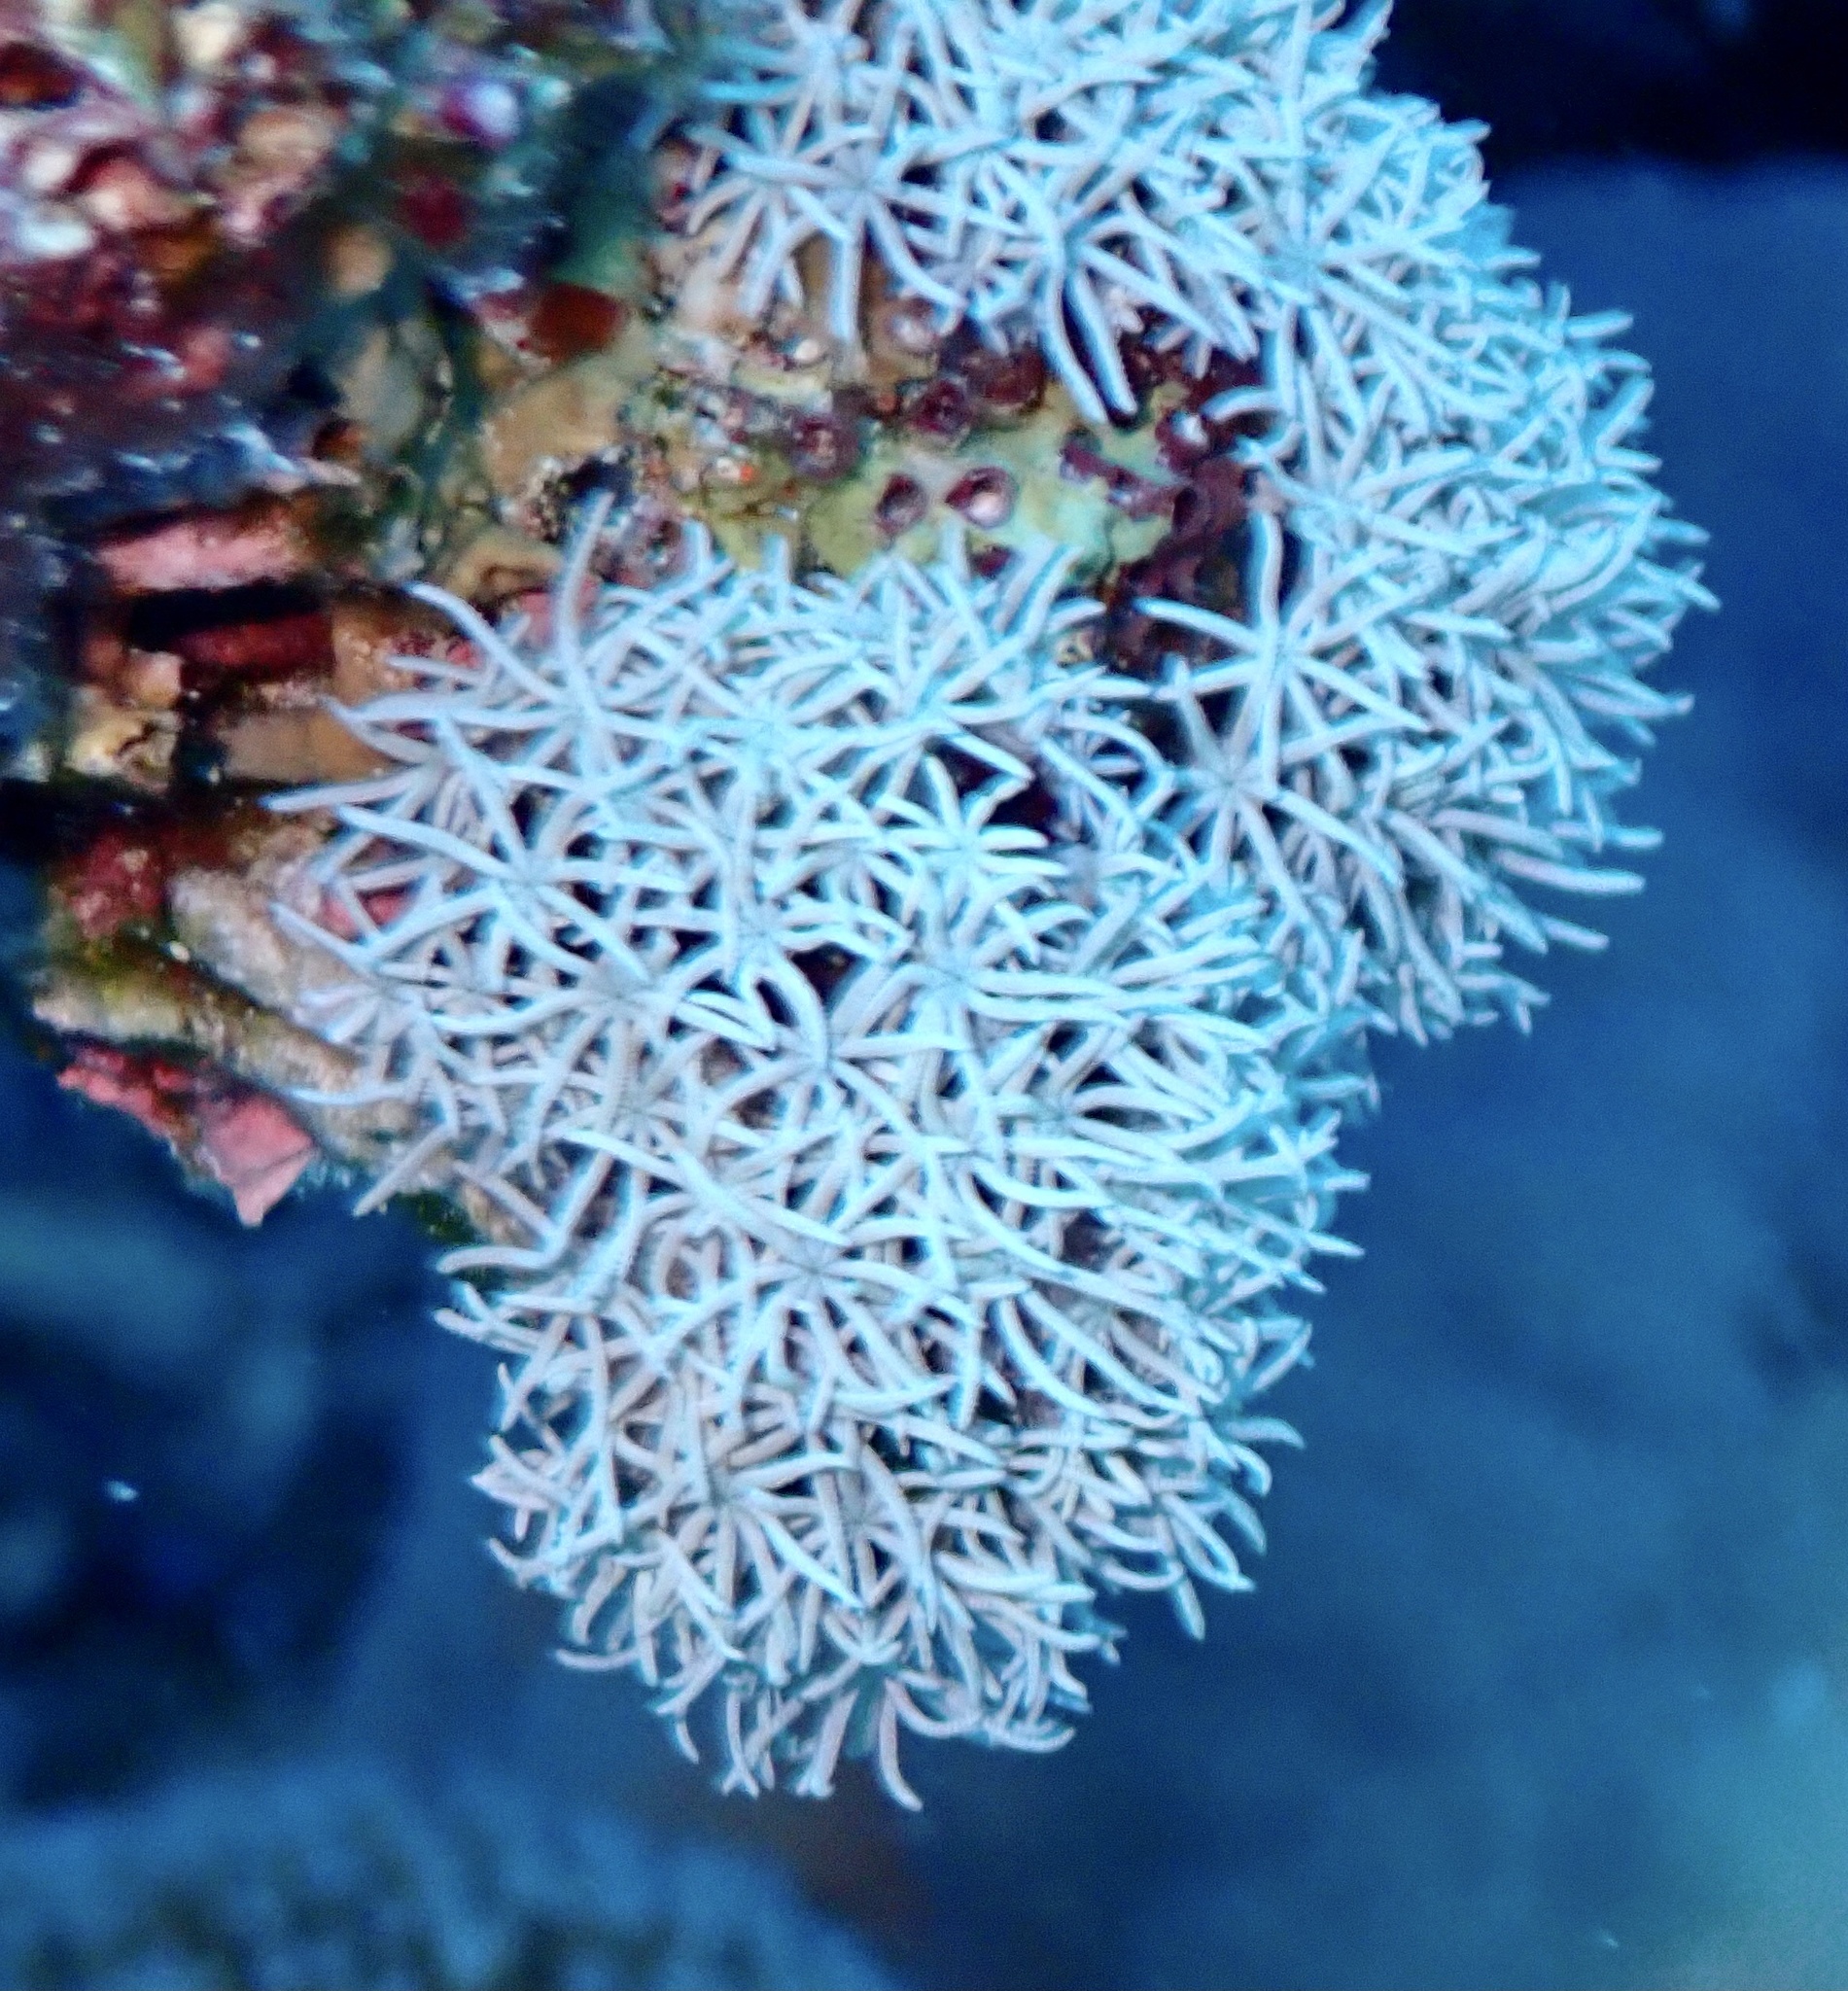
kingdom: Animalia
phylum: Cnidaria
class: Anthozoa
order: Malacalcyonacea
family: Tubiporidae
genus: Tubipora
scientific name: Tubipora
